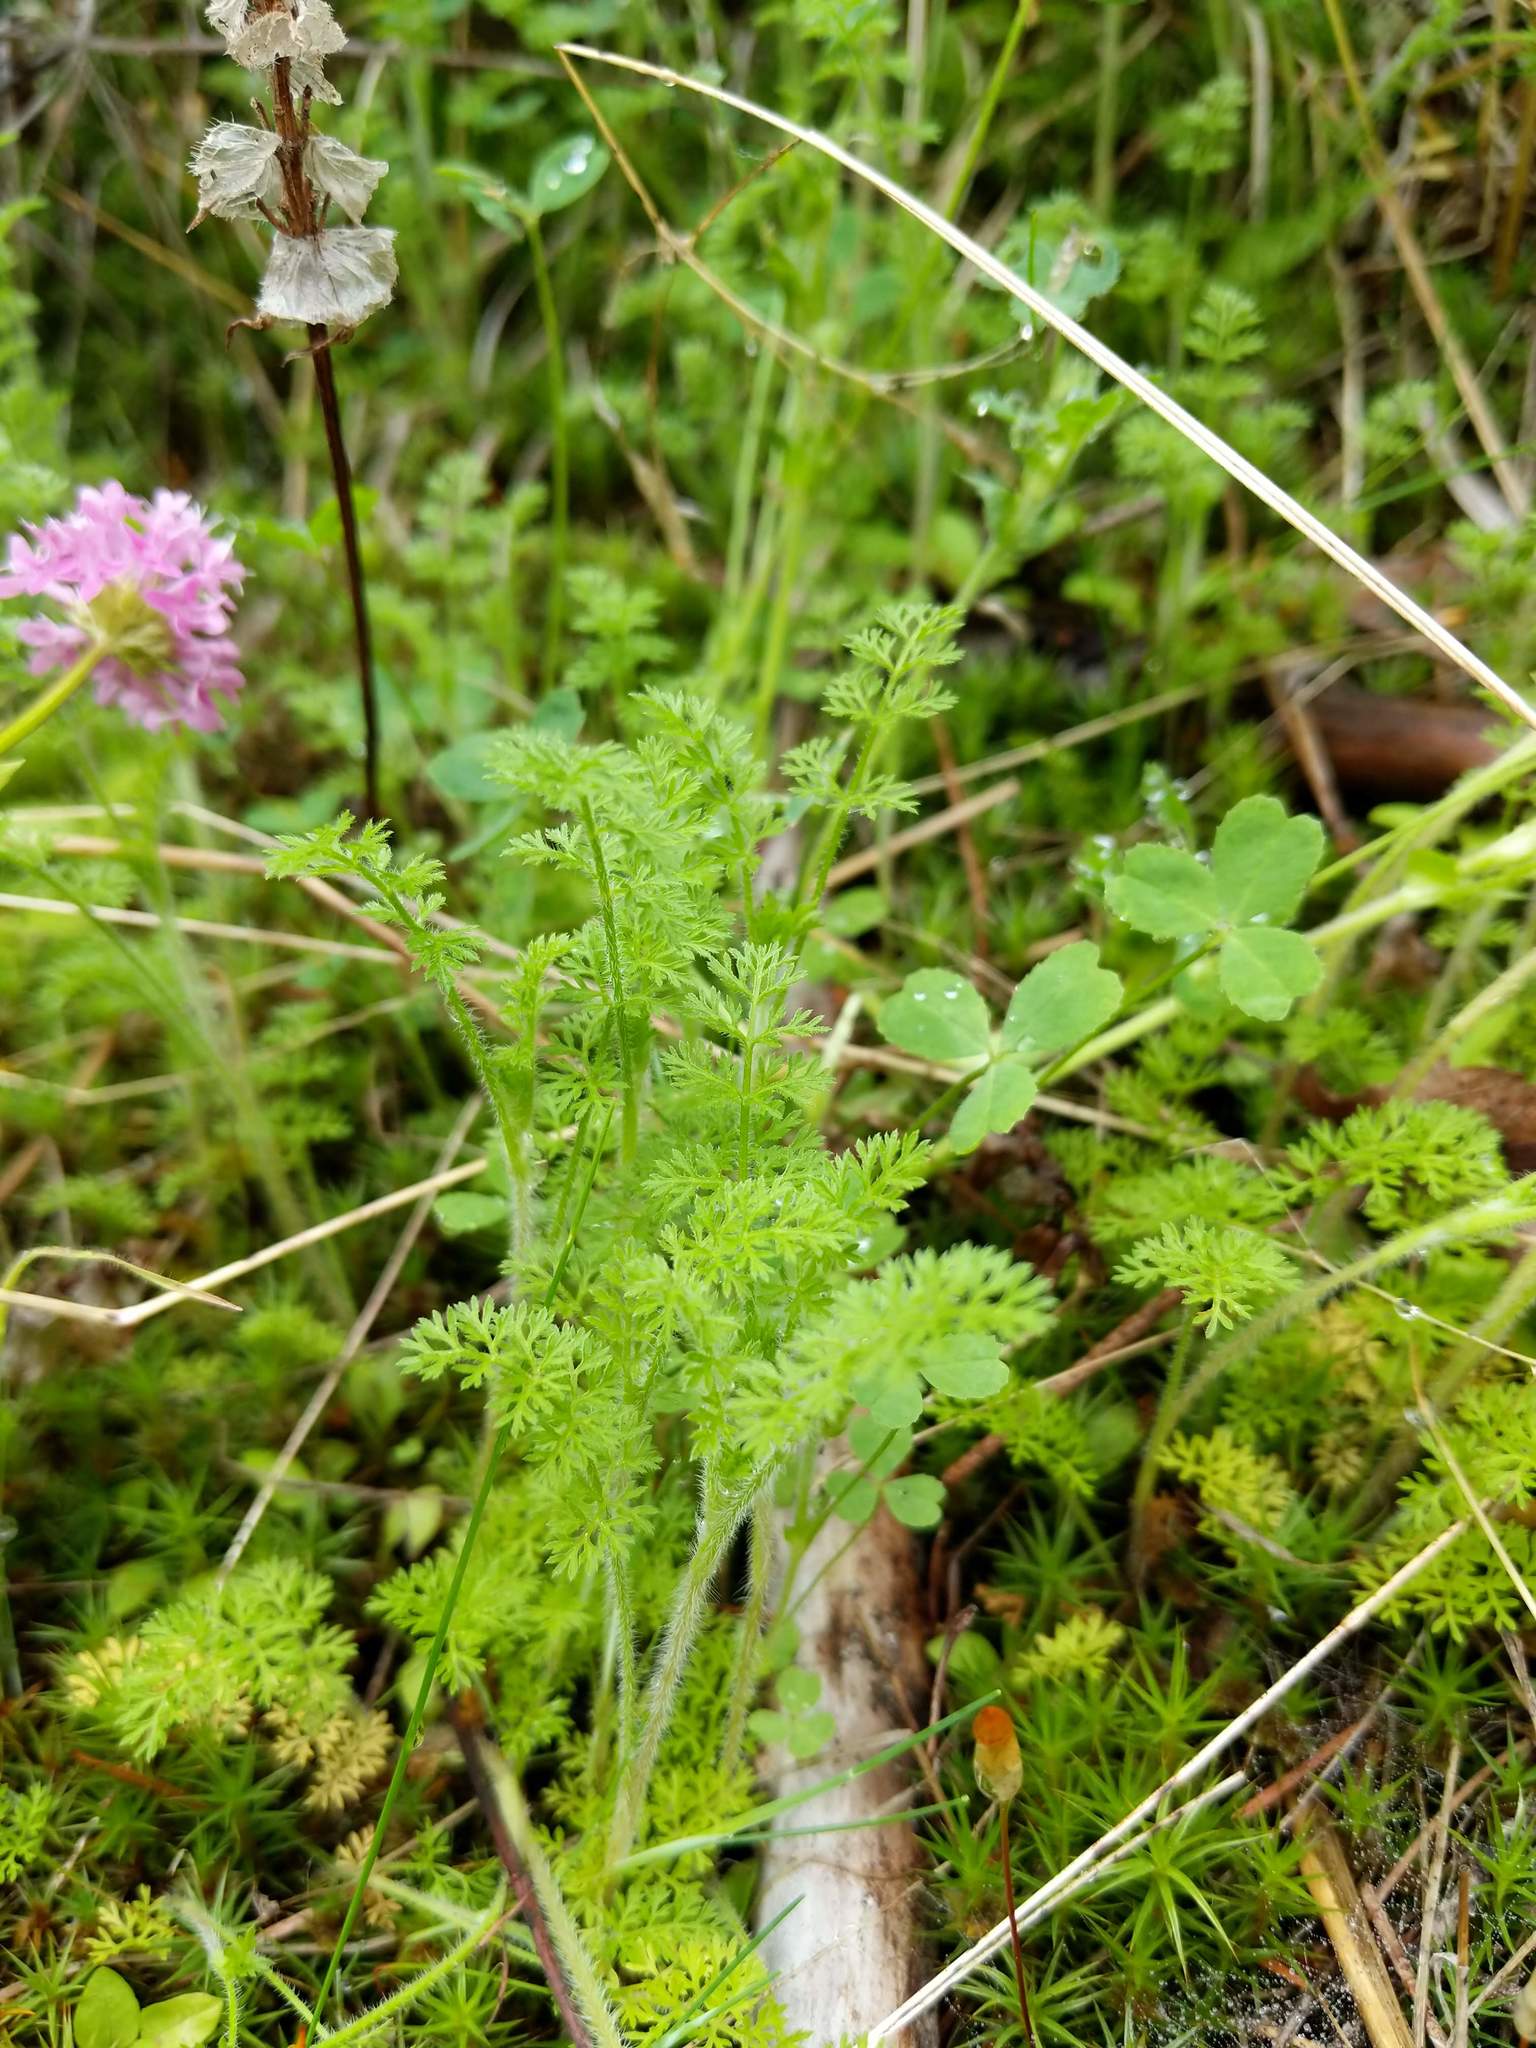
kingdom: Plantae
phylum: Tracheophyta
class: Magnoliopsida
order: Apiales
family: Apiaceae
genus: Daucus
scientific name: Daucus pusillus
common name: Southwest wild carrot
